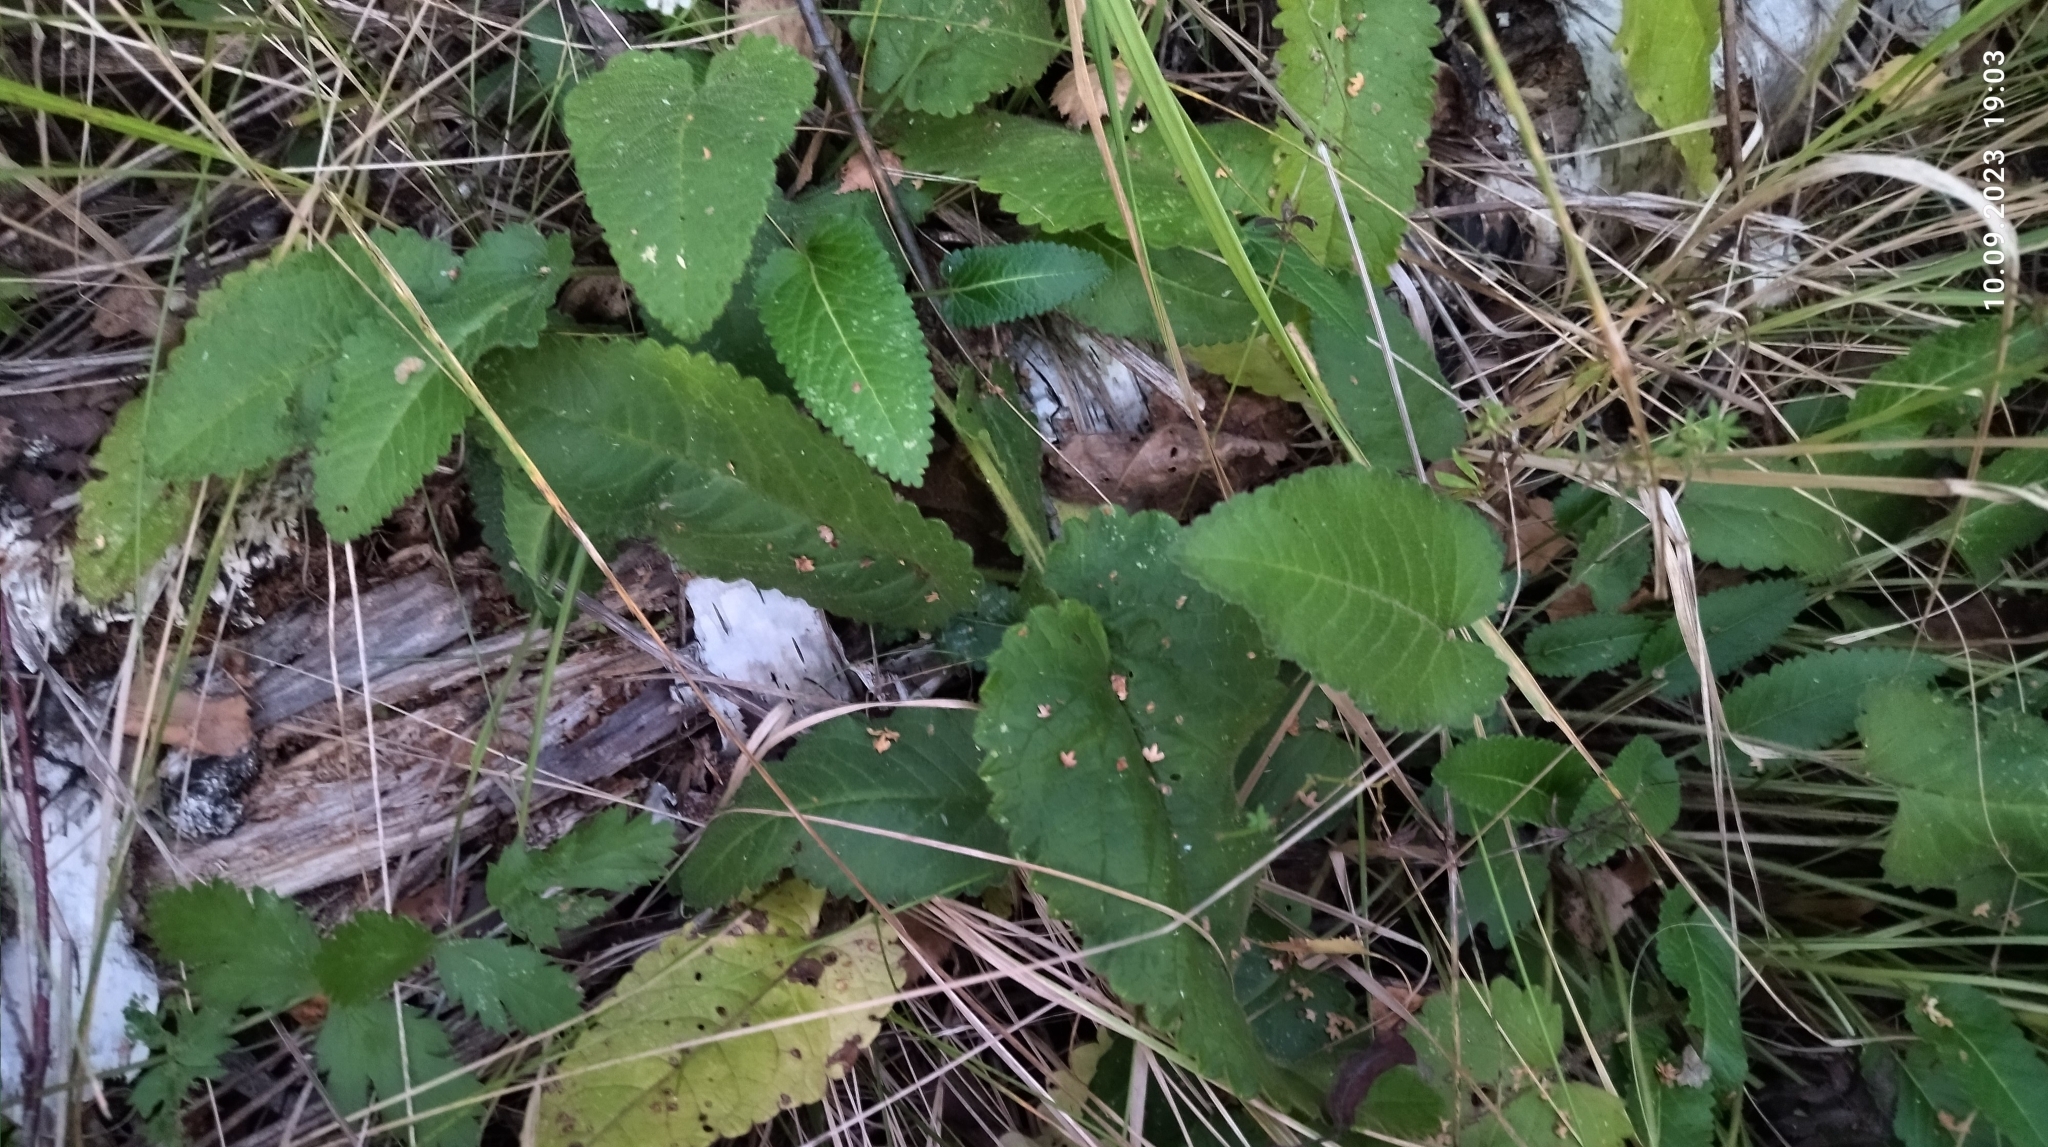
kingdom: Plantae
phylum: Tracheophyta
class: Magnoliopsida
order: Lamiales
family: Lamiaceae
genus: Betonica
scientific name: Betonica officinalis
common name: Bishop's-wort
